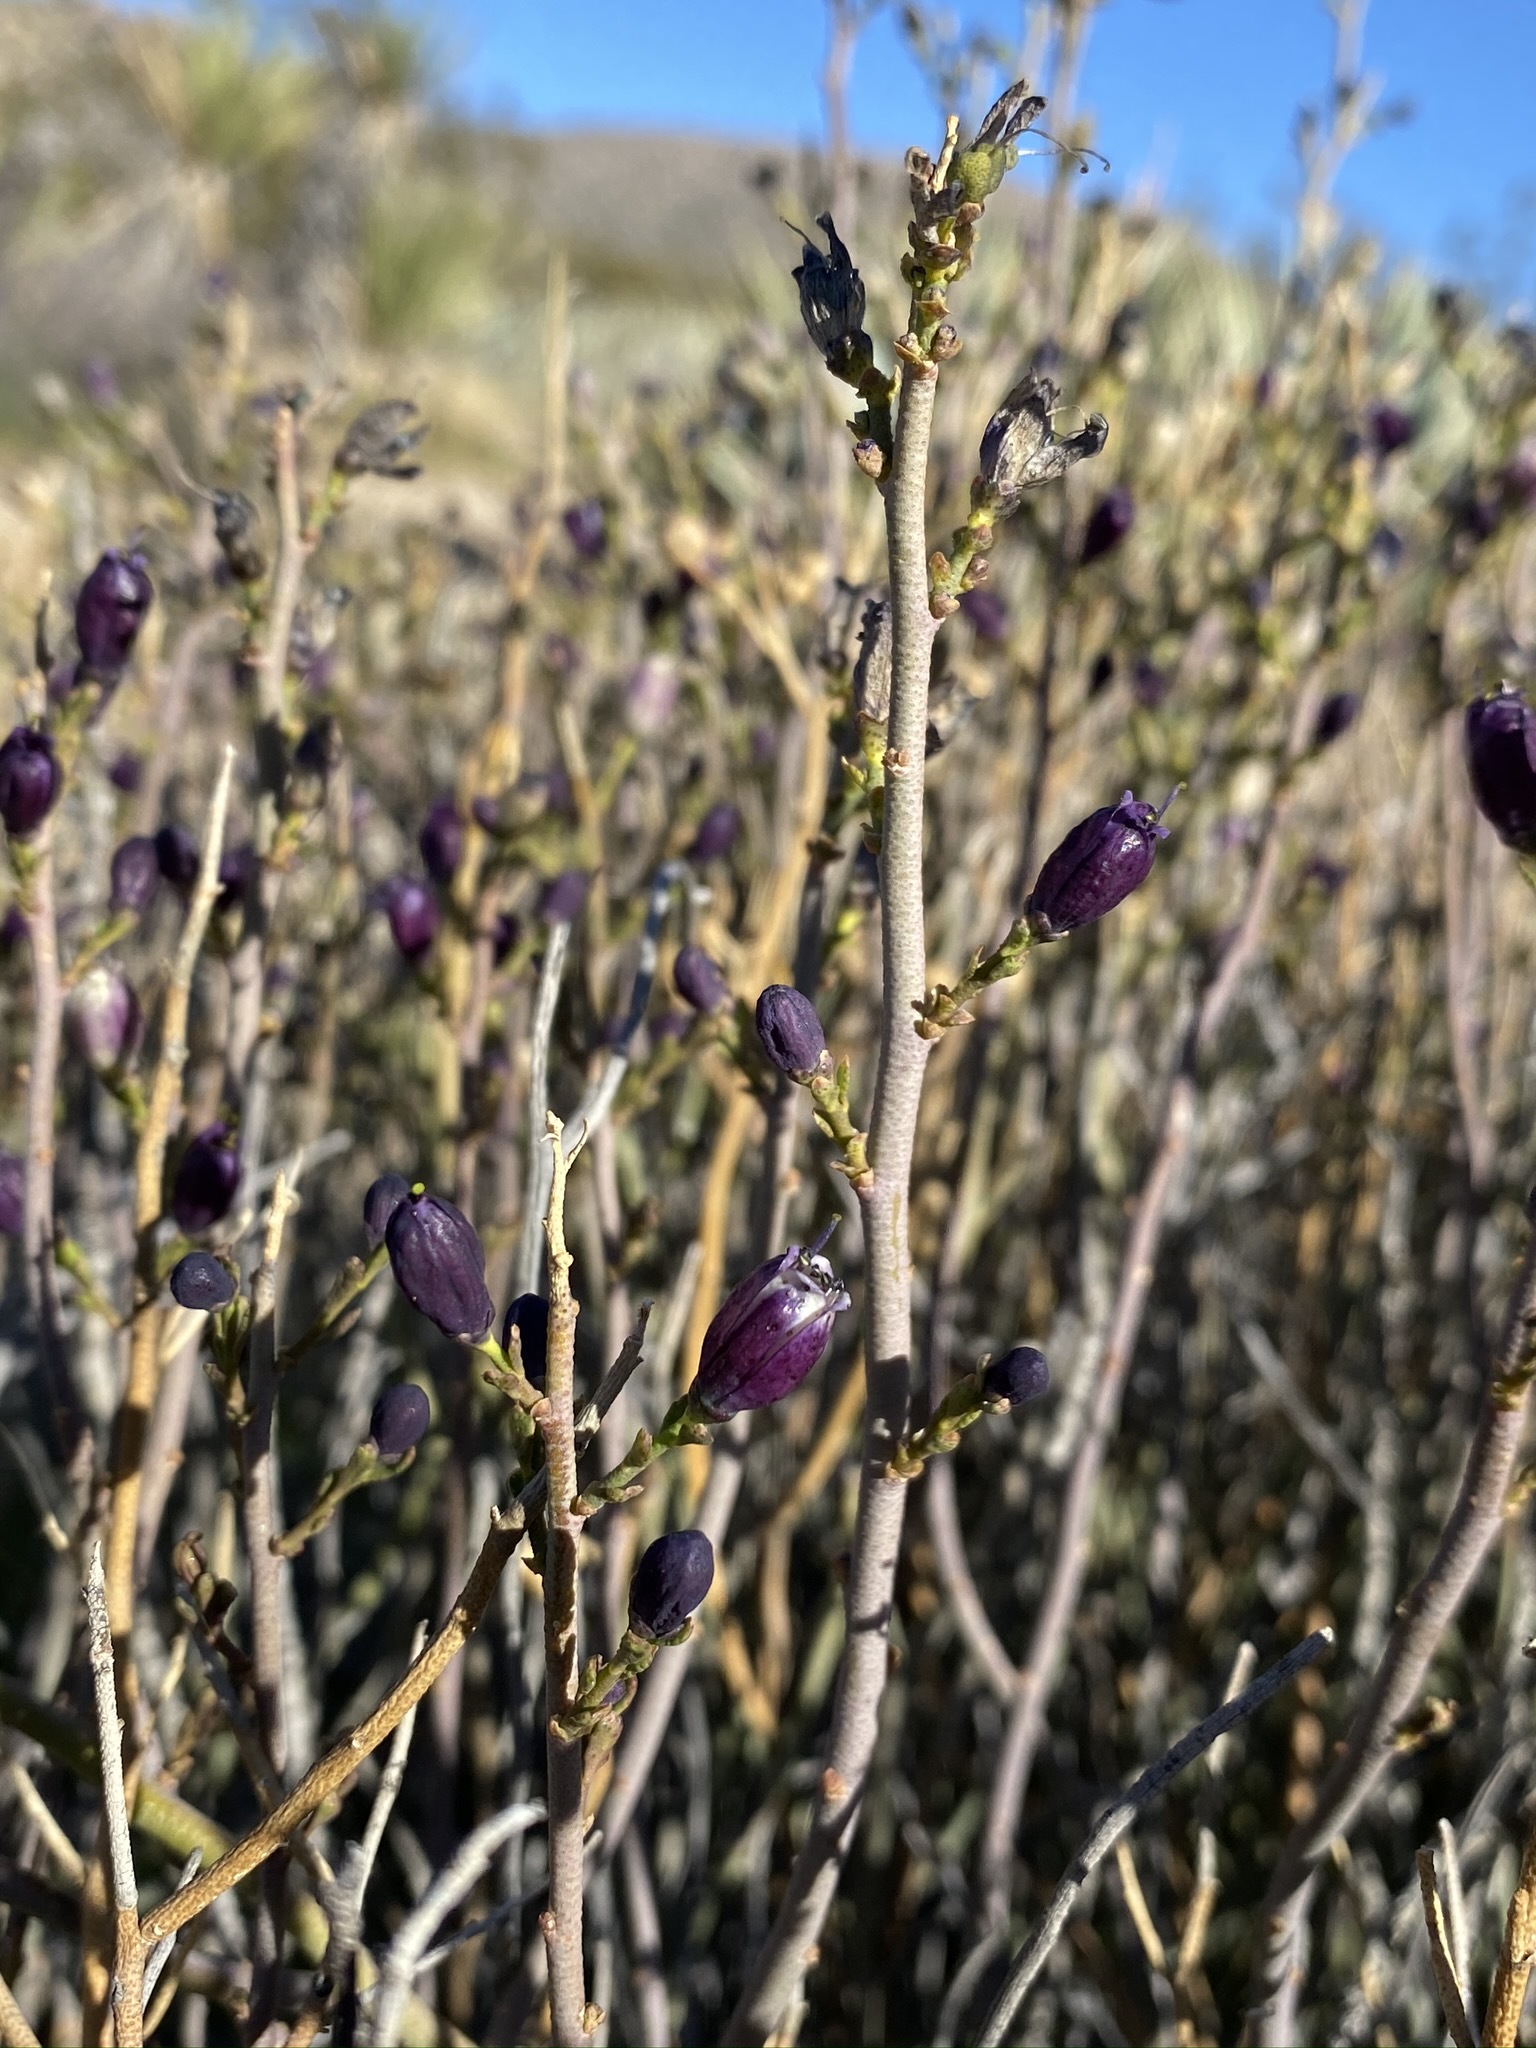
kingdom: Plantae
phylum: Tracheophyta
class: Magnoliopsida
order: Sapindales
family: Rutaceae
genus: Thamnosma
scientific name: Thamnosma montana
